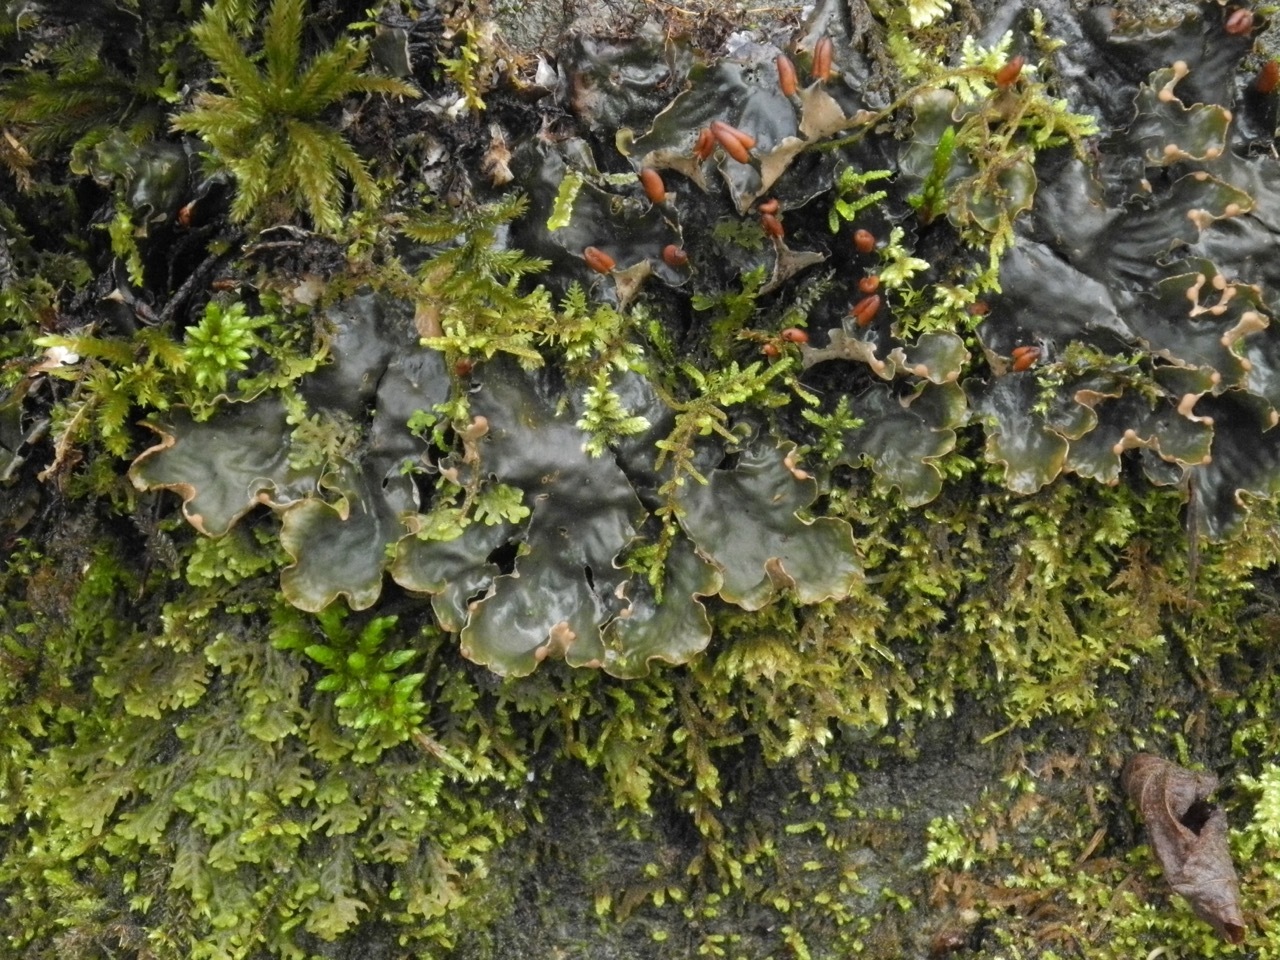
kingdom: Fungi
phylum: Ascomycota
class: Lecanoromycetes
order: Peltigerales
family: Peltigeraceae
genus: Peltigera
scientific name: Peltigera polydactylon
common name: Many-fruited pelt lichen
